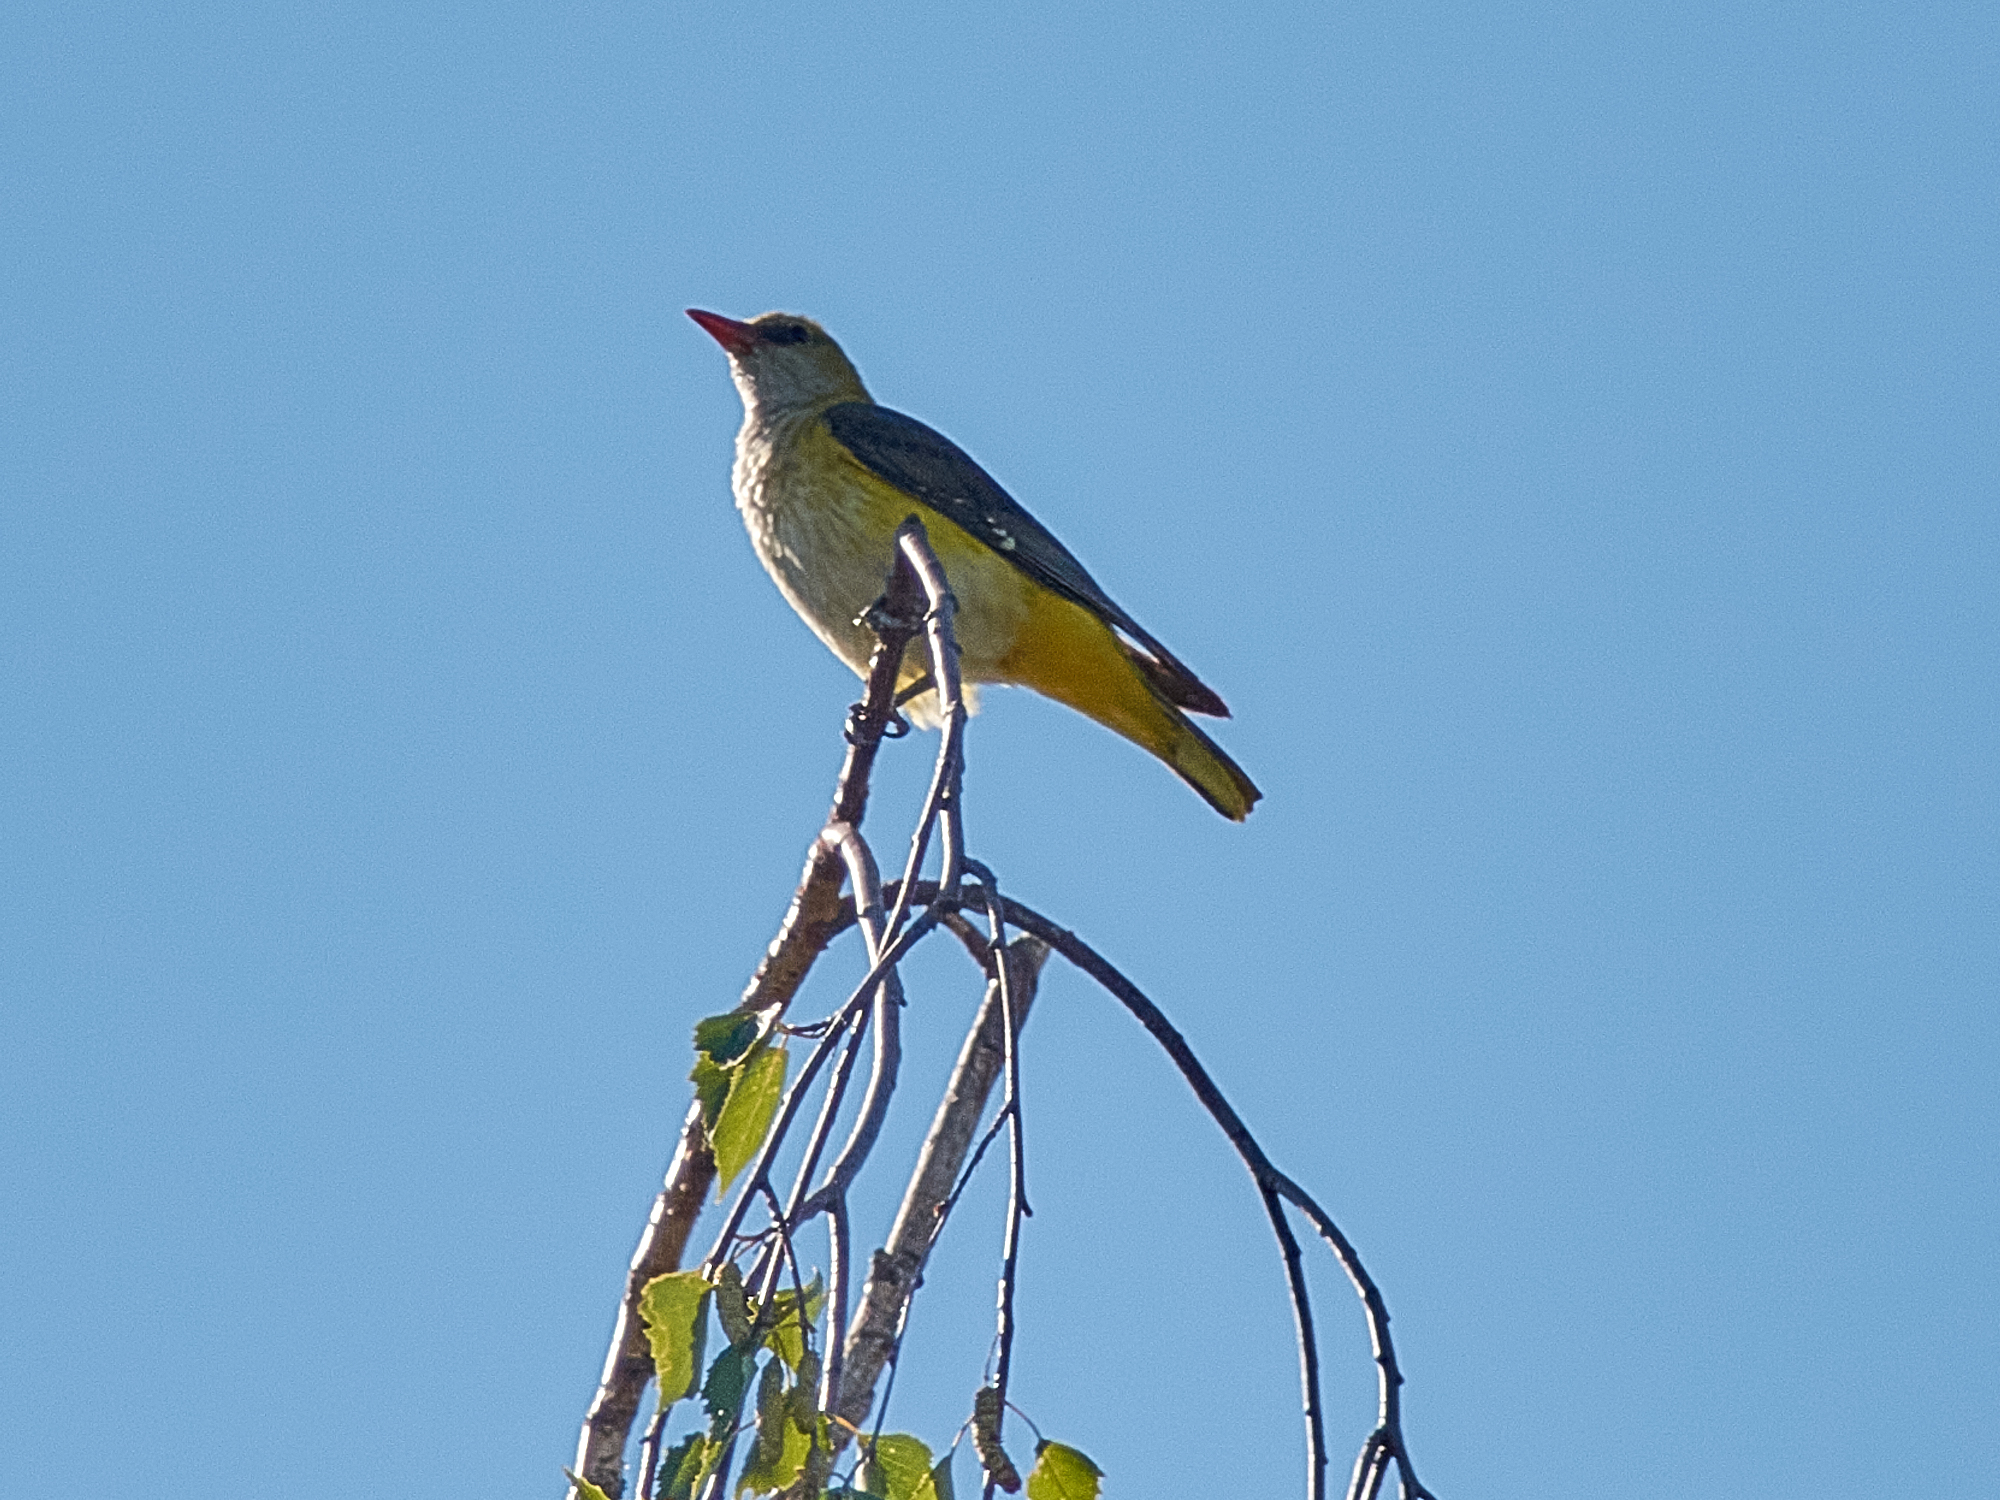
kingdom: Animalia
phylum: Chordata
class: Aves
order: Passeriformes
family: Oriolidae
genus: Oriolus
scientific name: Oriolus oriolus
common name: Eurasian golden oriole
